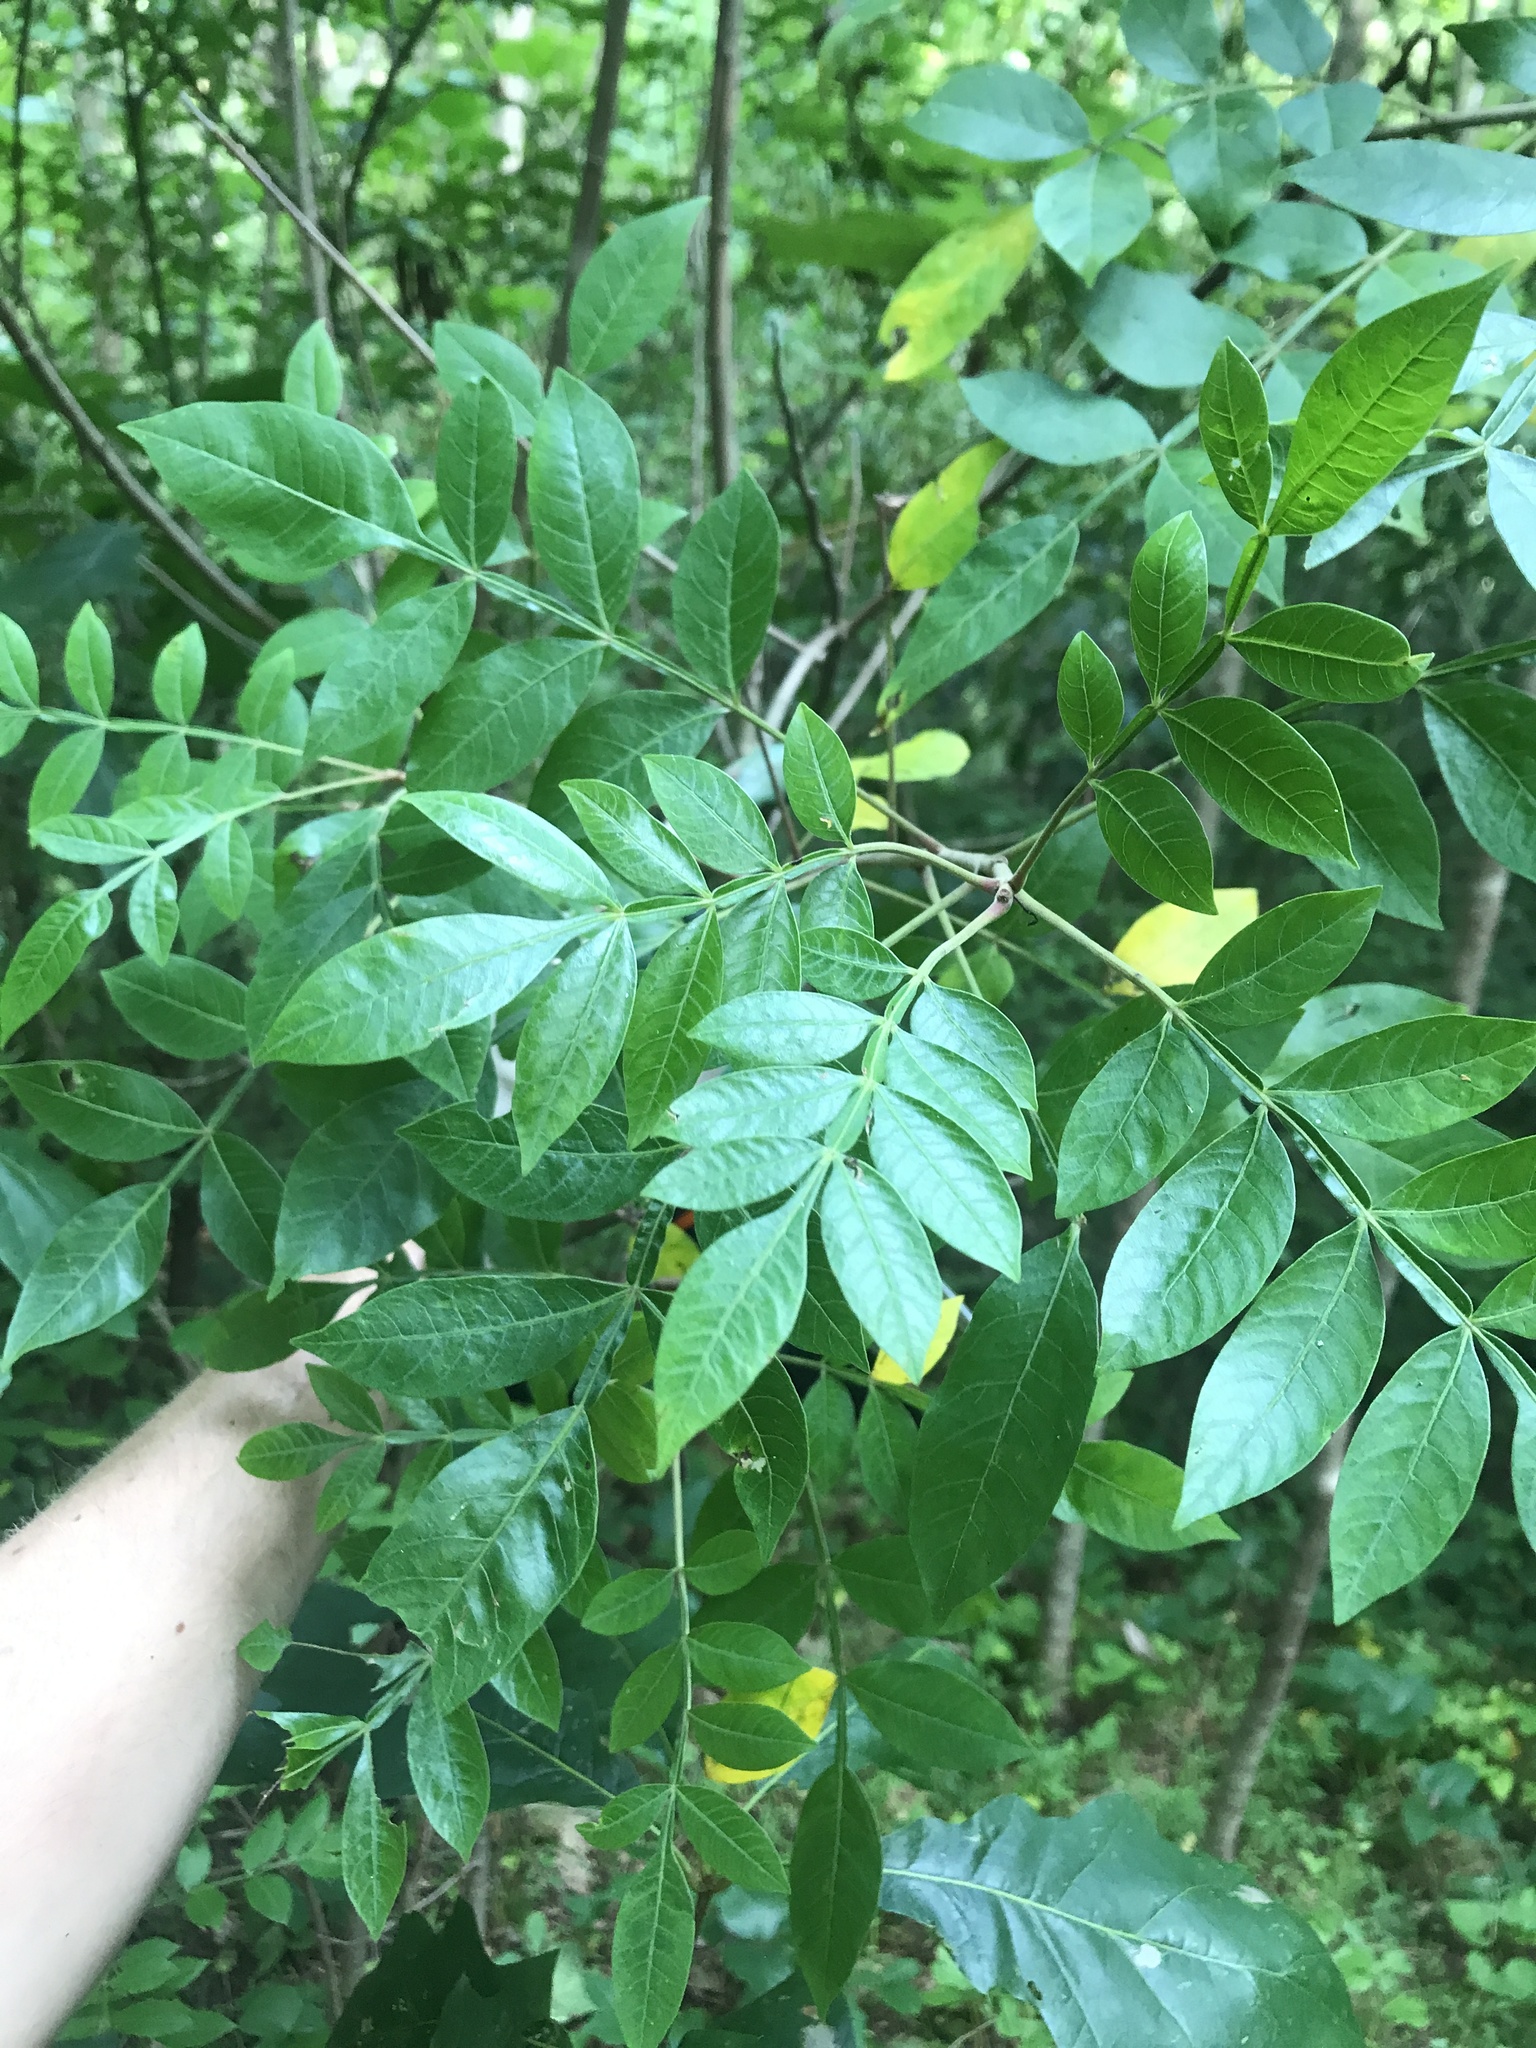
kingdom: Plantae
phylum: Tracheophyta
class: Magnoliopsida
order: Sapindales
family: Anacardiaceae
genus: Rhus
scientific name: Rhus copallina
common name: Shining sumac
